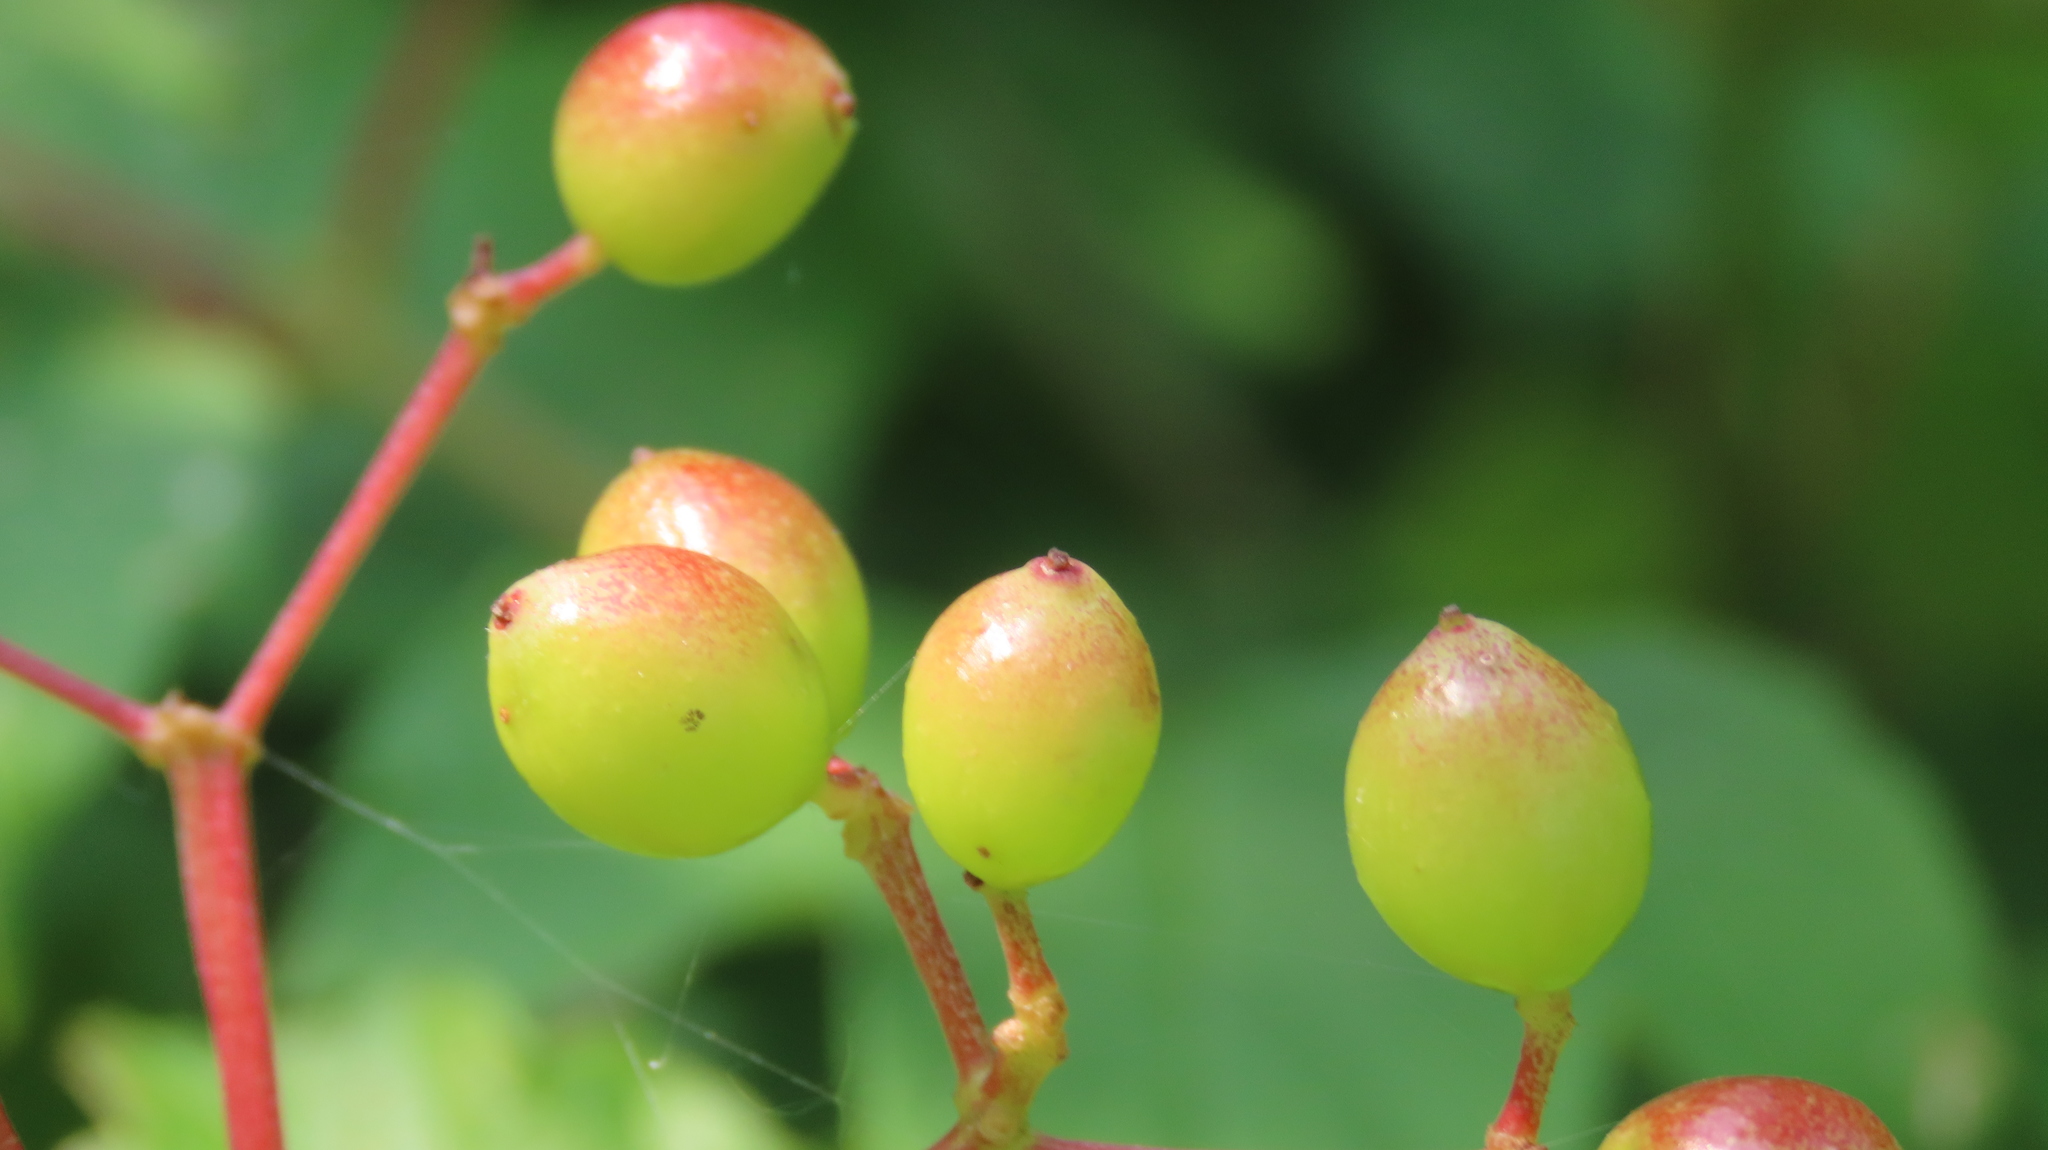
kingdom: Plantae
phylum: Tracheophyta
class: Magnoliopsida
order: Dipsacales
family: Viburnaceae
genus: Viburnum
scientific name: Viburnum opulus
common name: Guelder-rose
